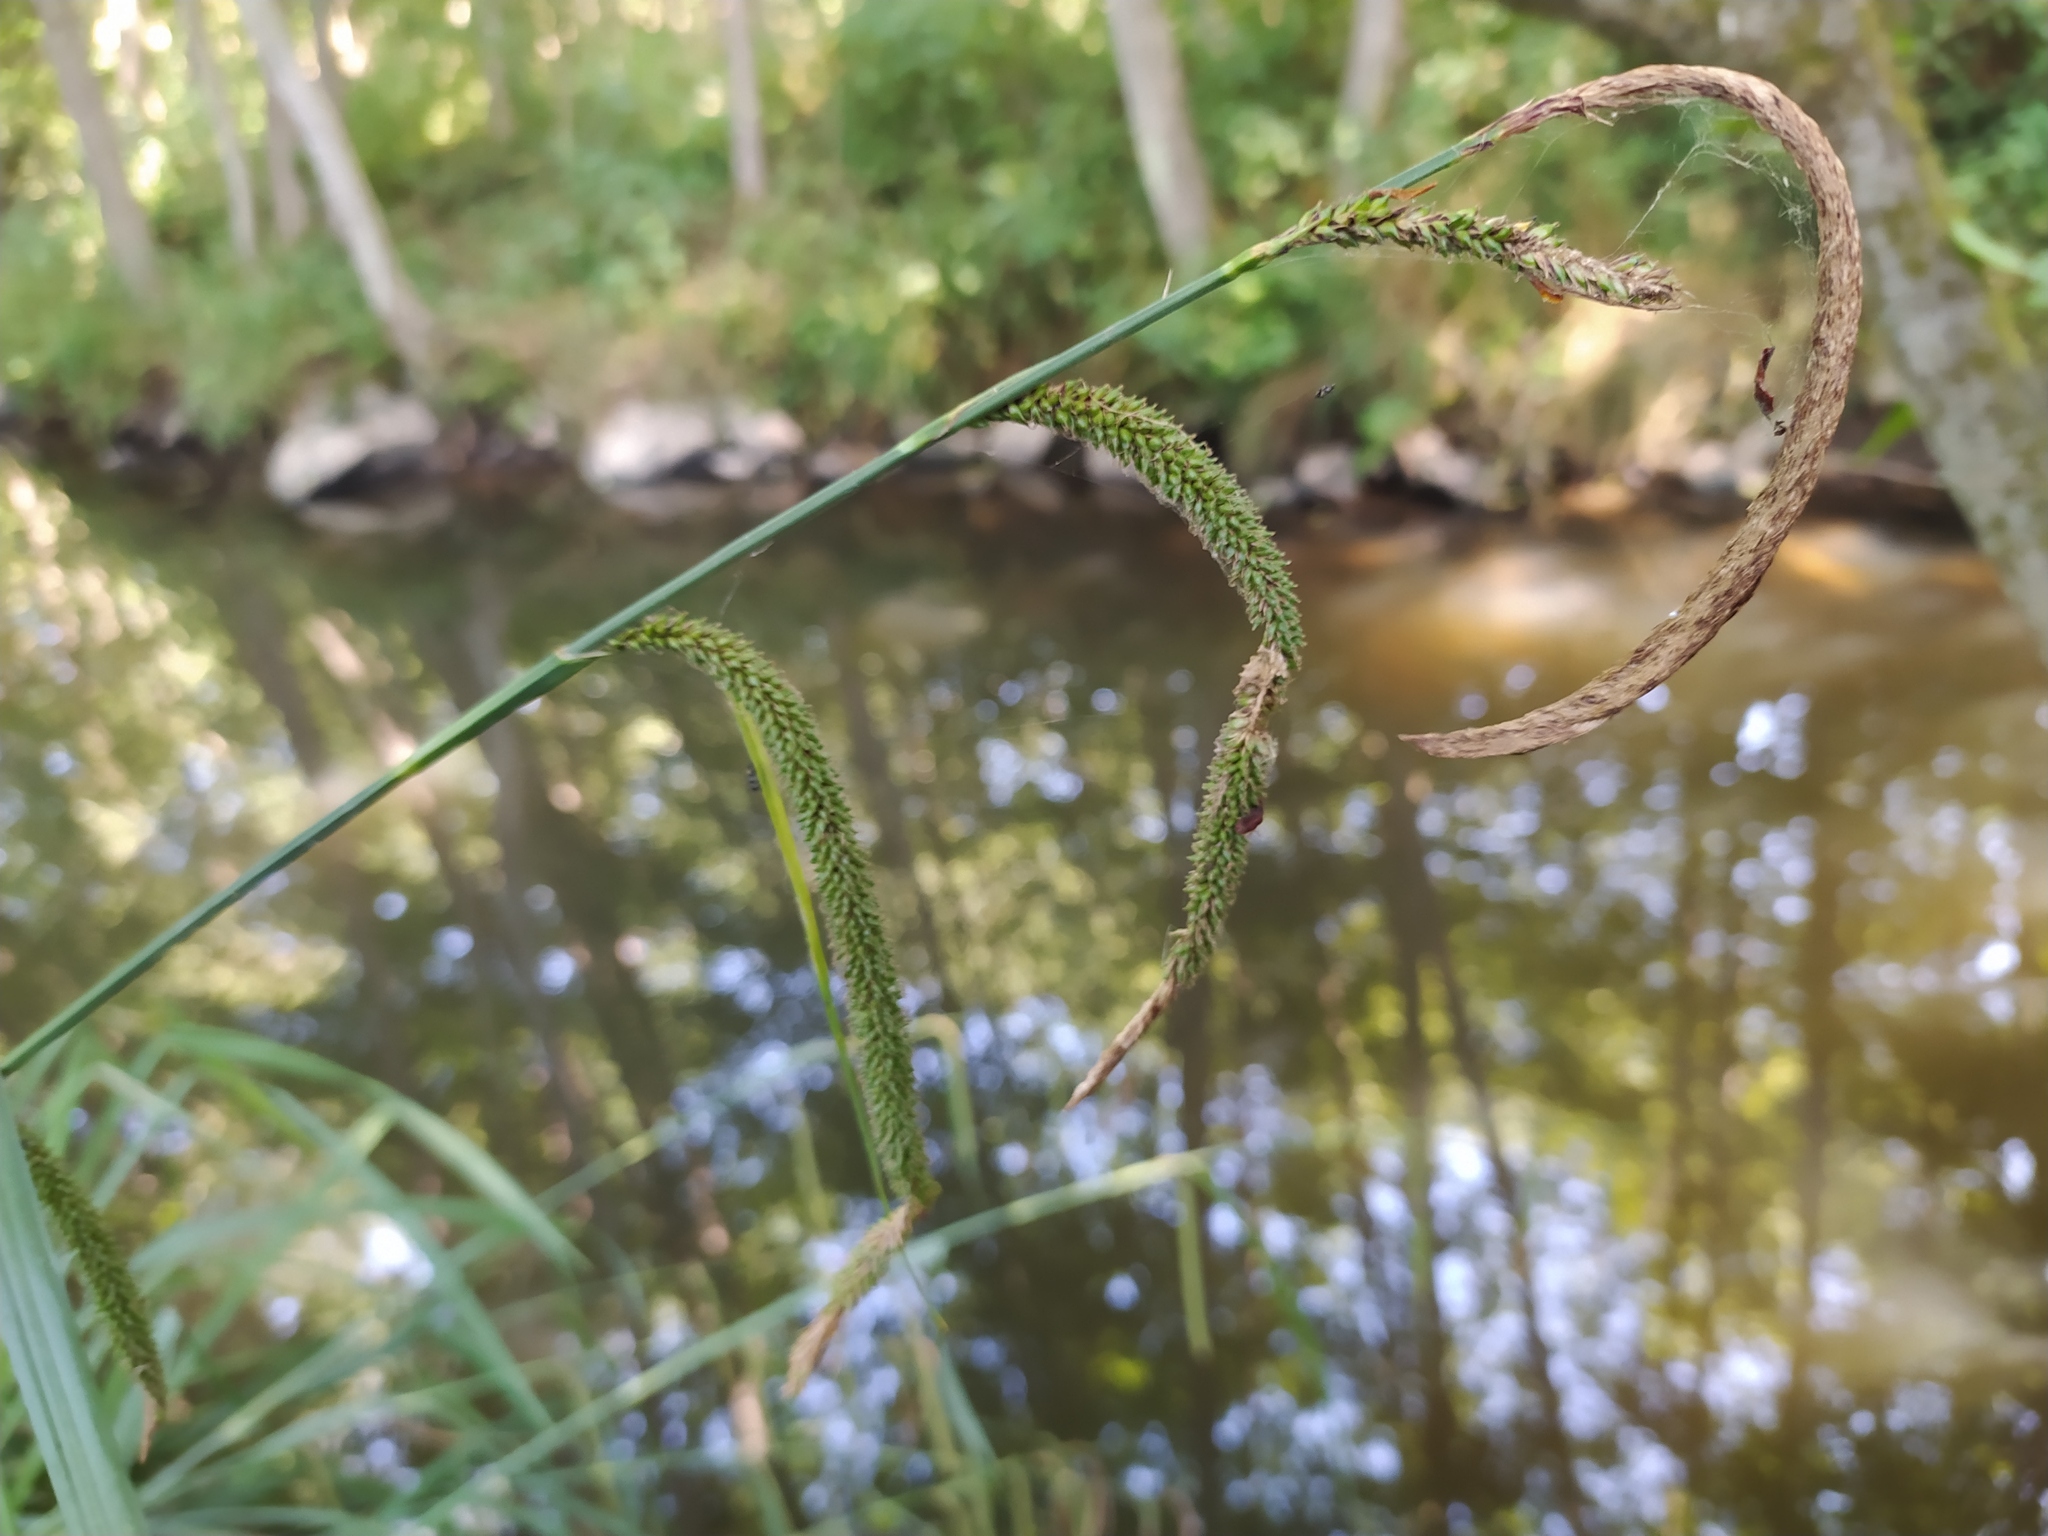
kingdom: Plantae
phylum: Tracheophyta
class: Liliopsida
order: Poales
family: Cyperaceae
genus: Carex
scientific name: Carex pendula
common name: Pendulous sedge
